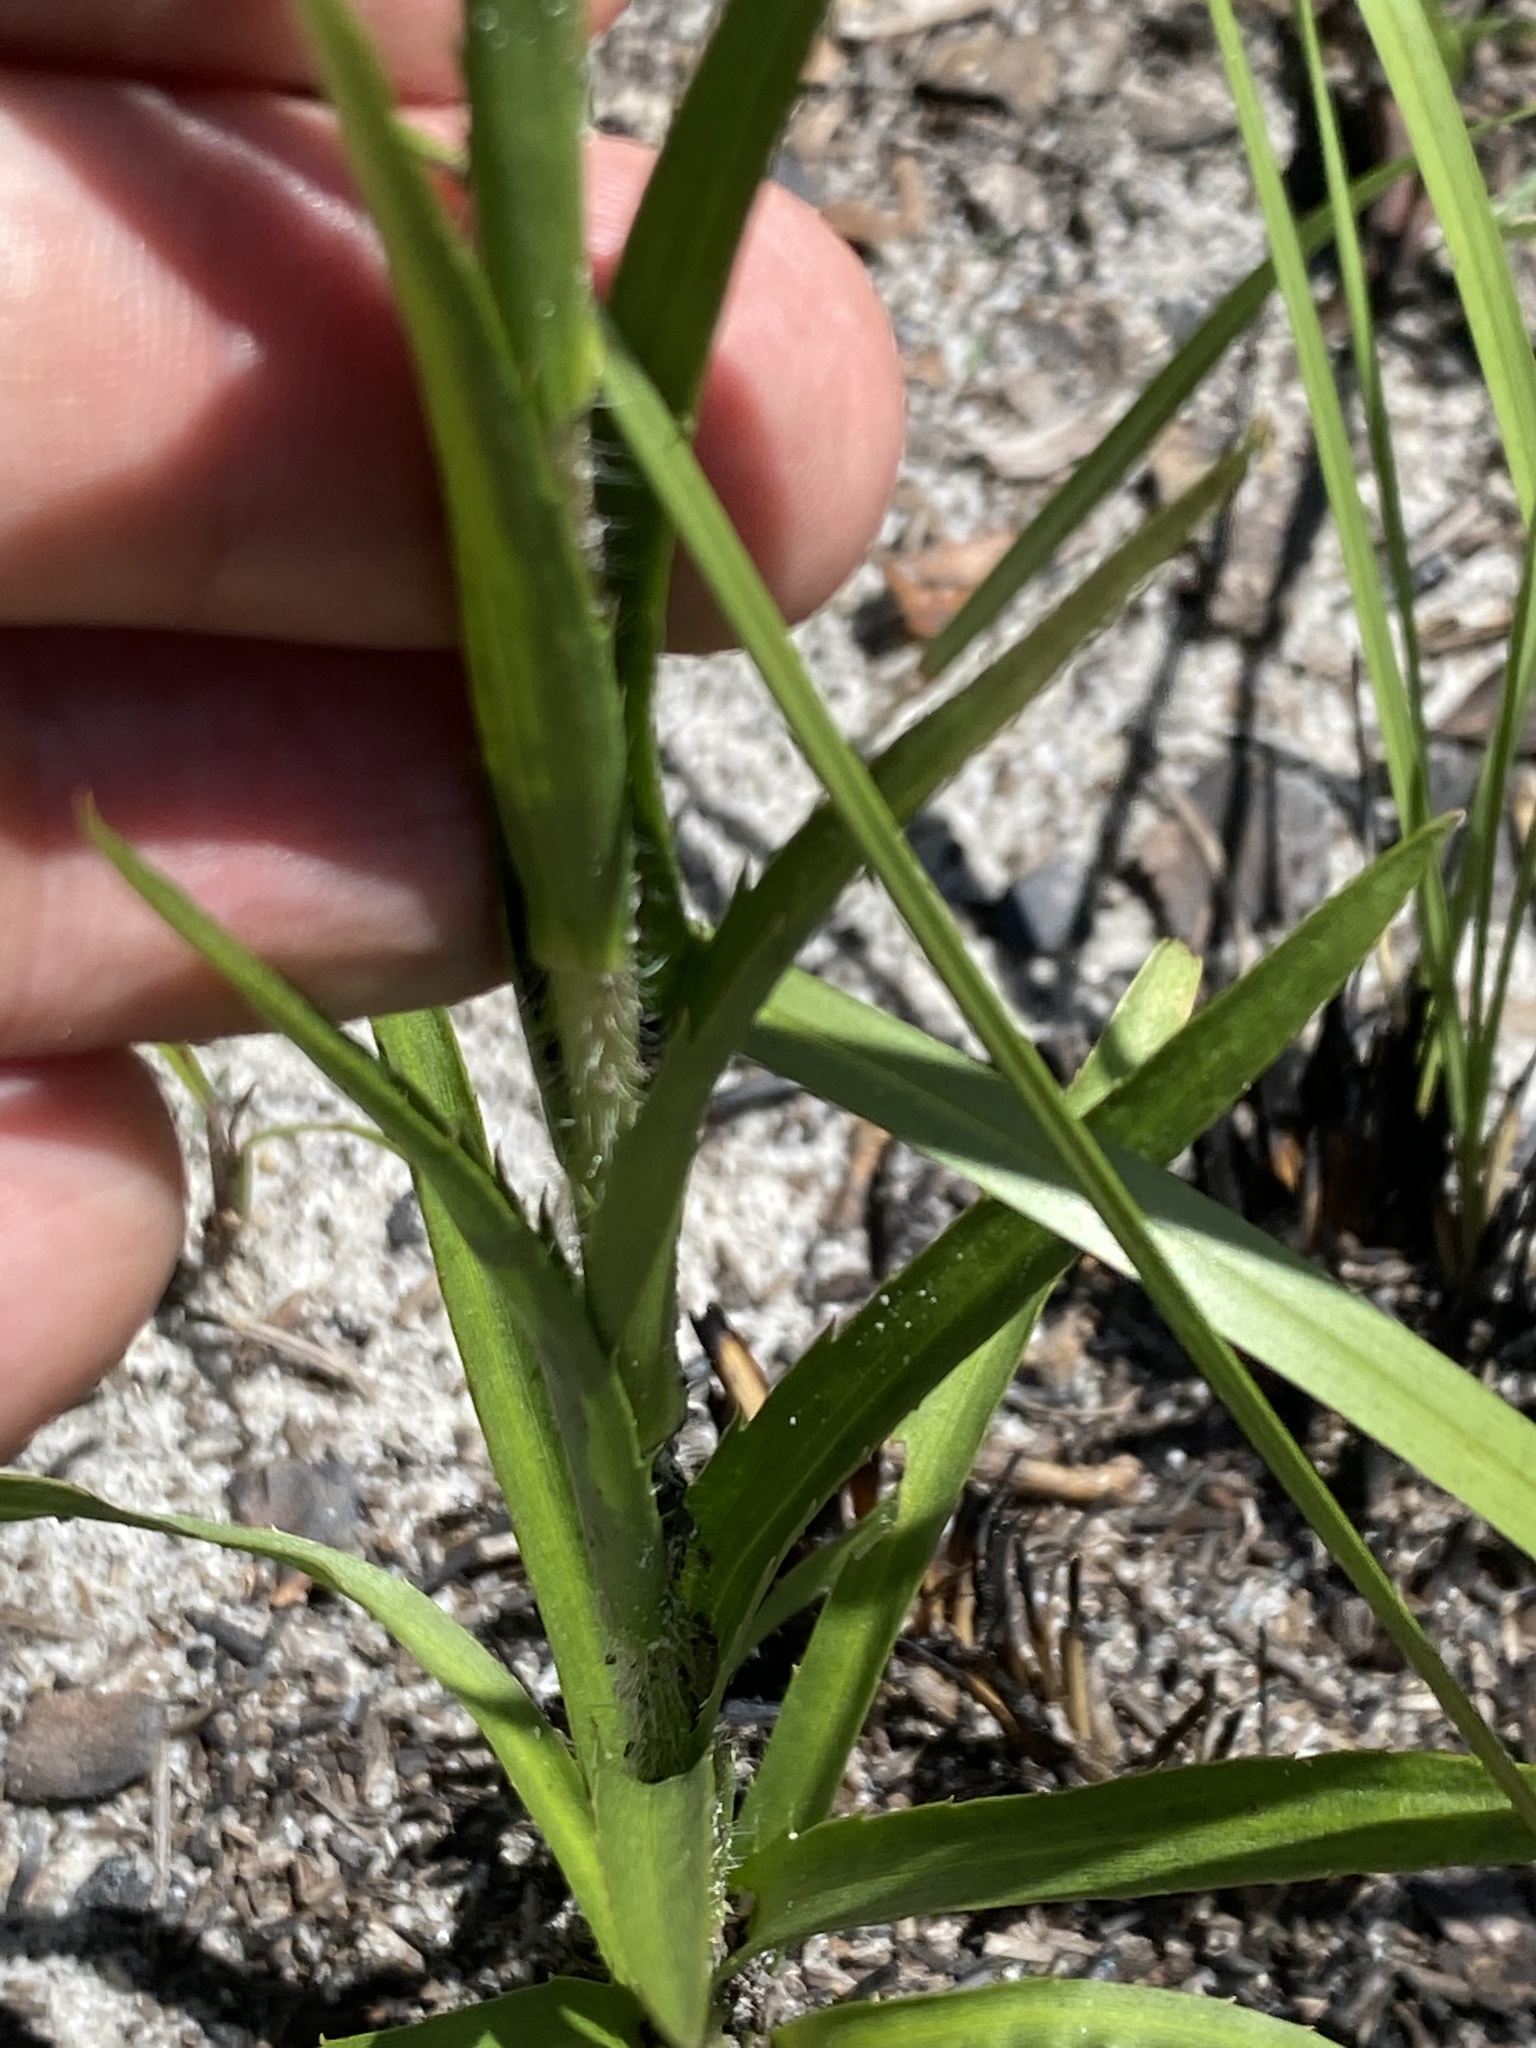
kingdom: Plantae
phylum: Tracheophyta
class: Magnoliopsida
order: Asterales
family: Asteraceae
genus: Eurybia
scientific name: Eurybia eryngiifolia
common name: Thistle-leaf aster
